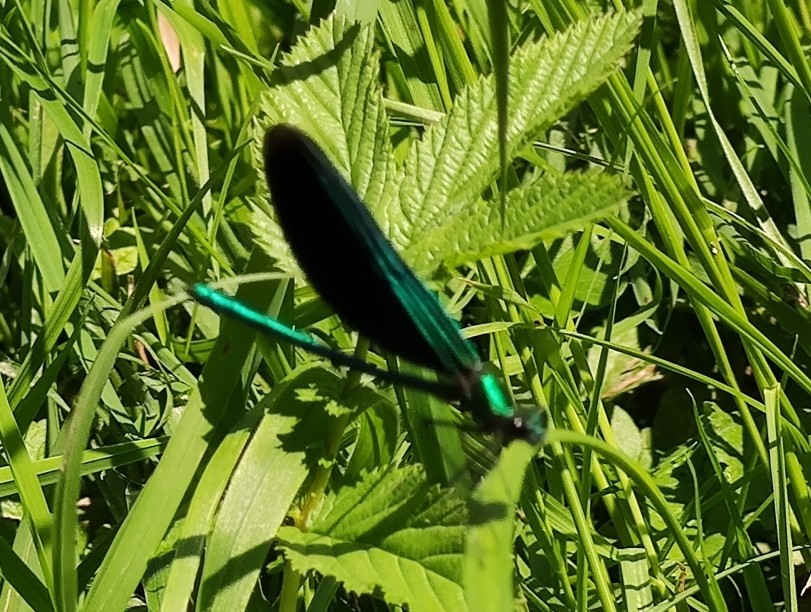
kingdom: Animalia
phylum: Arthropoda
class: Insecta
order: Odonata
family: Calopterygidae
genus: Calopteryx
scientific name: Calopteryx virgo
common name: Beautiful demoiselle
